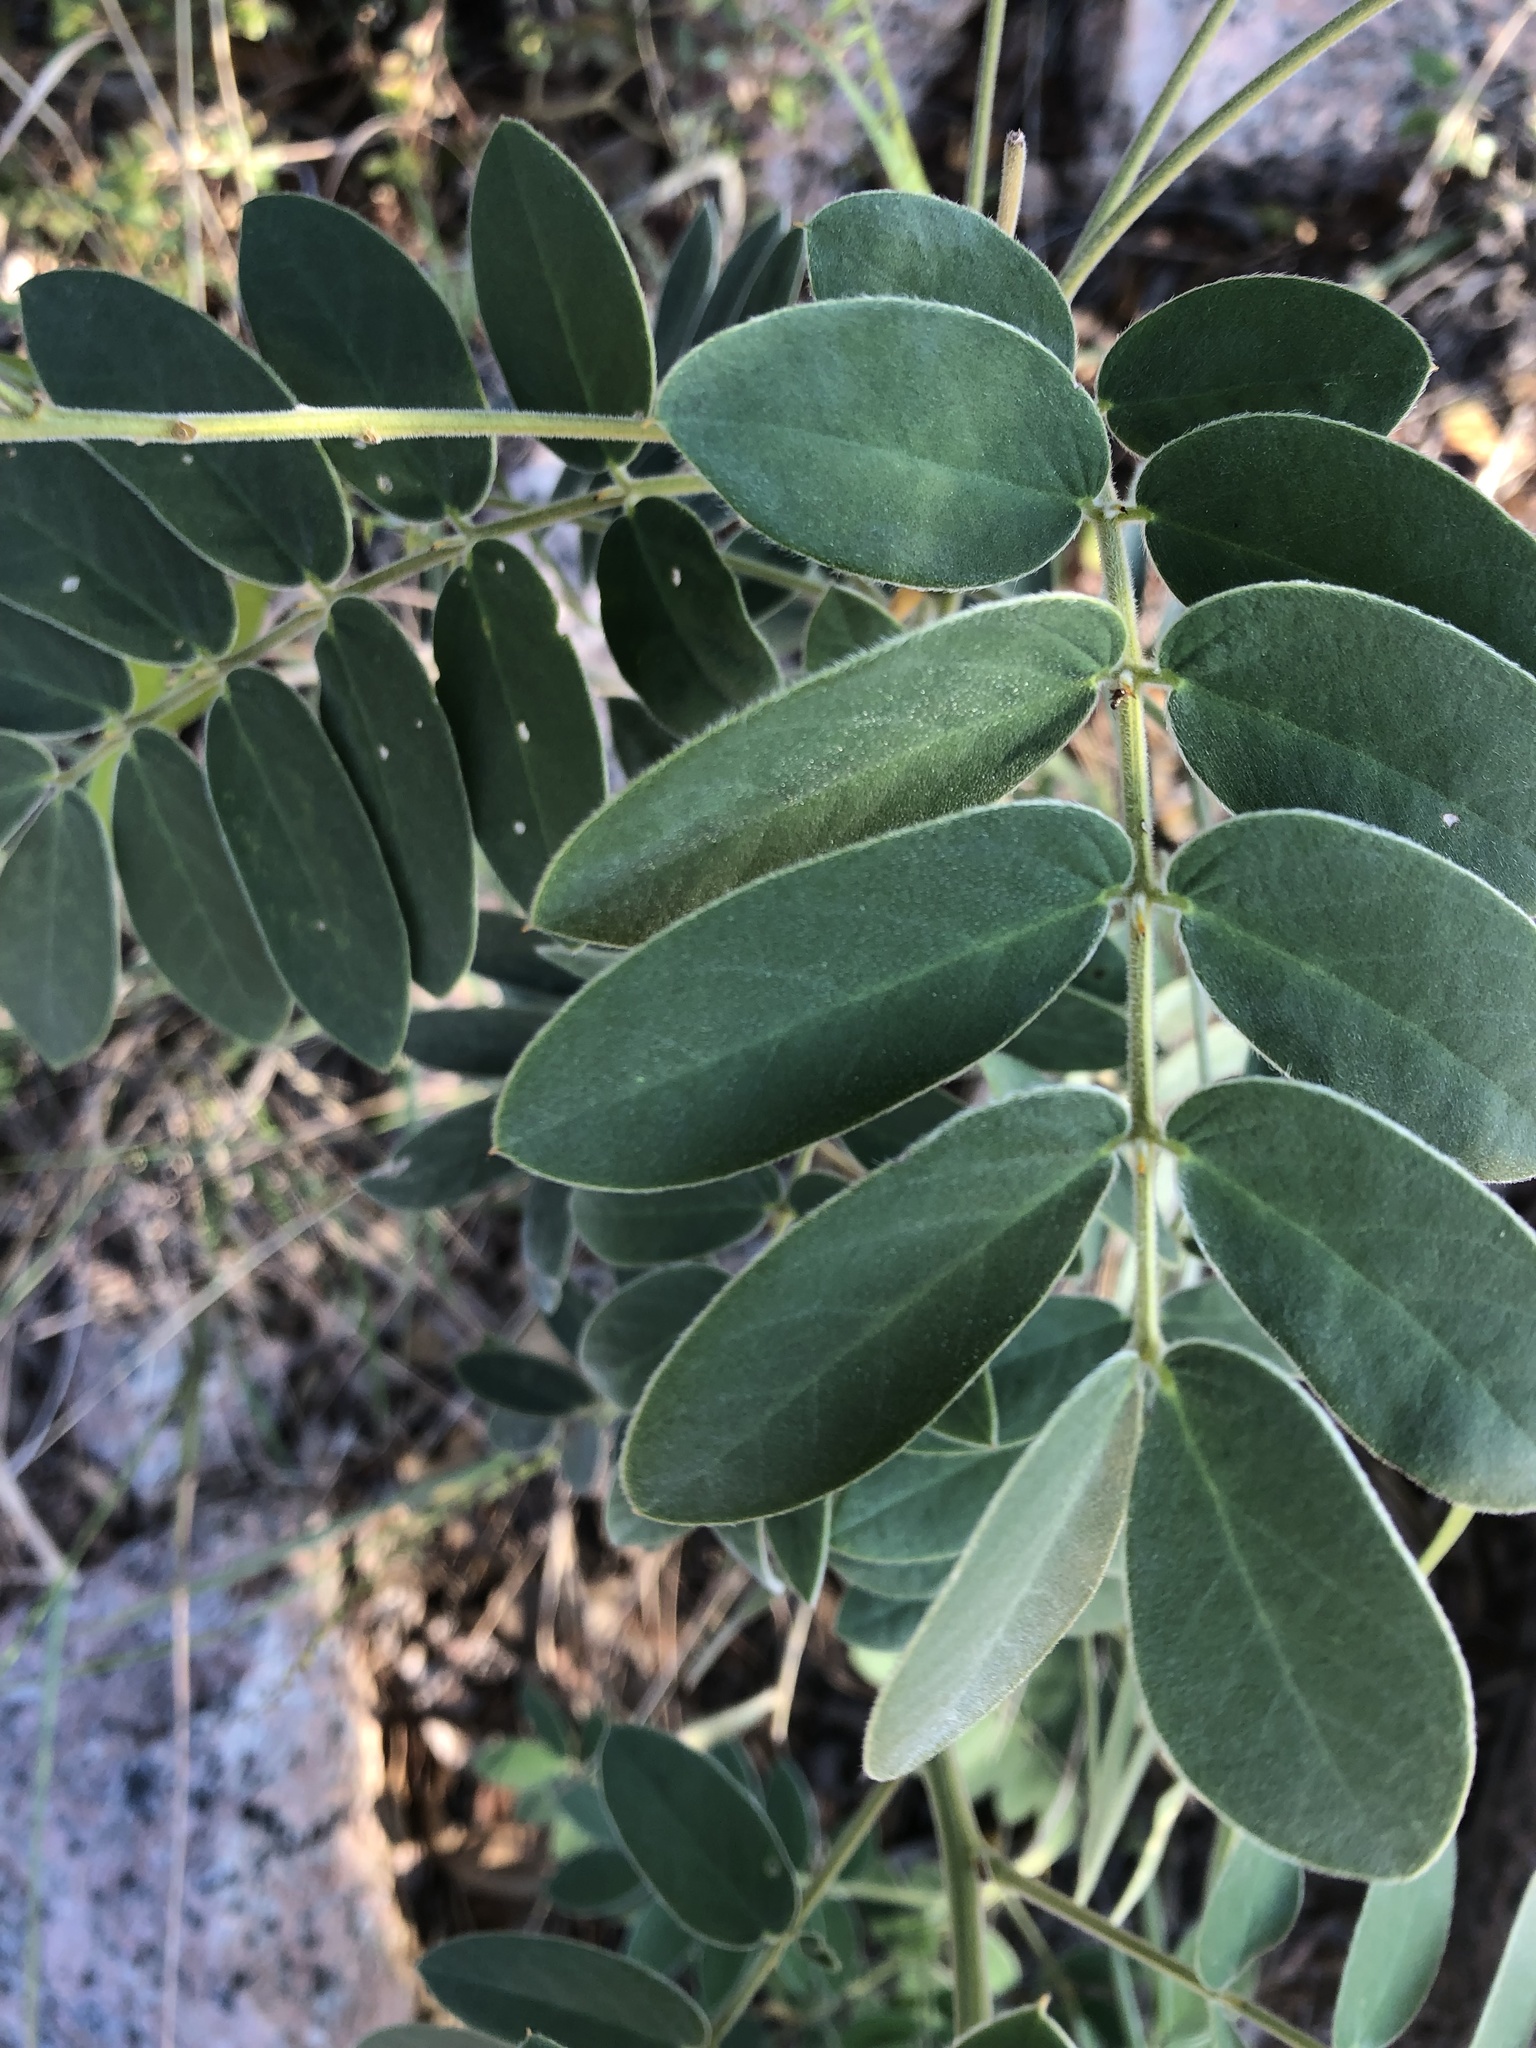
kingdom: Plantae
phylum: Tracheophyta
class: Magnoliopsida
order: Fabales
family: Fabaceae
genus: Senna
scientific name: Senna lindheimeriana
